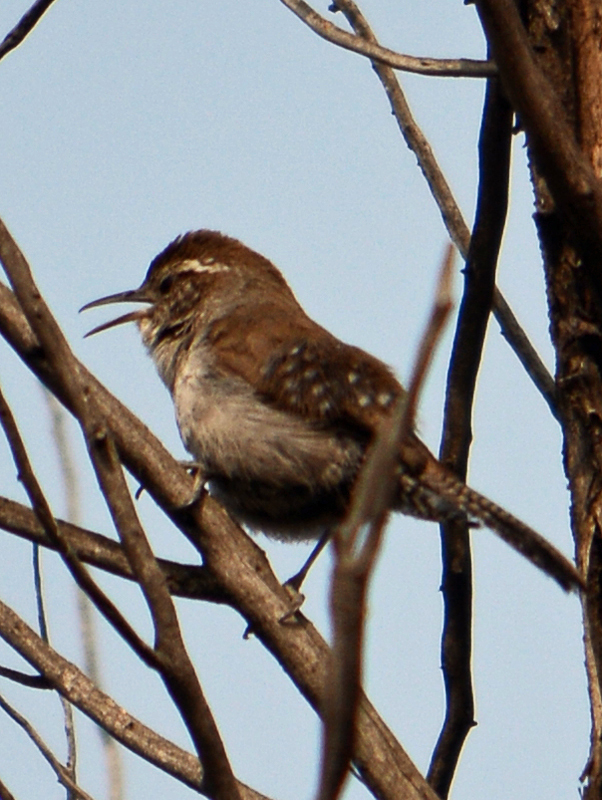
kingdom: Animalia
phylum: Chordata
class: Aves
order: Passeriformes
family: Troglodytidae
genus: Thryomanes
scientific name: Thryomanes bewickii
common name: Bewick's wren
